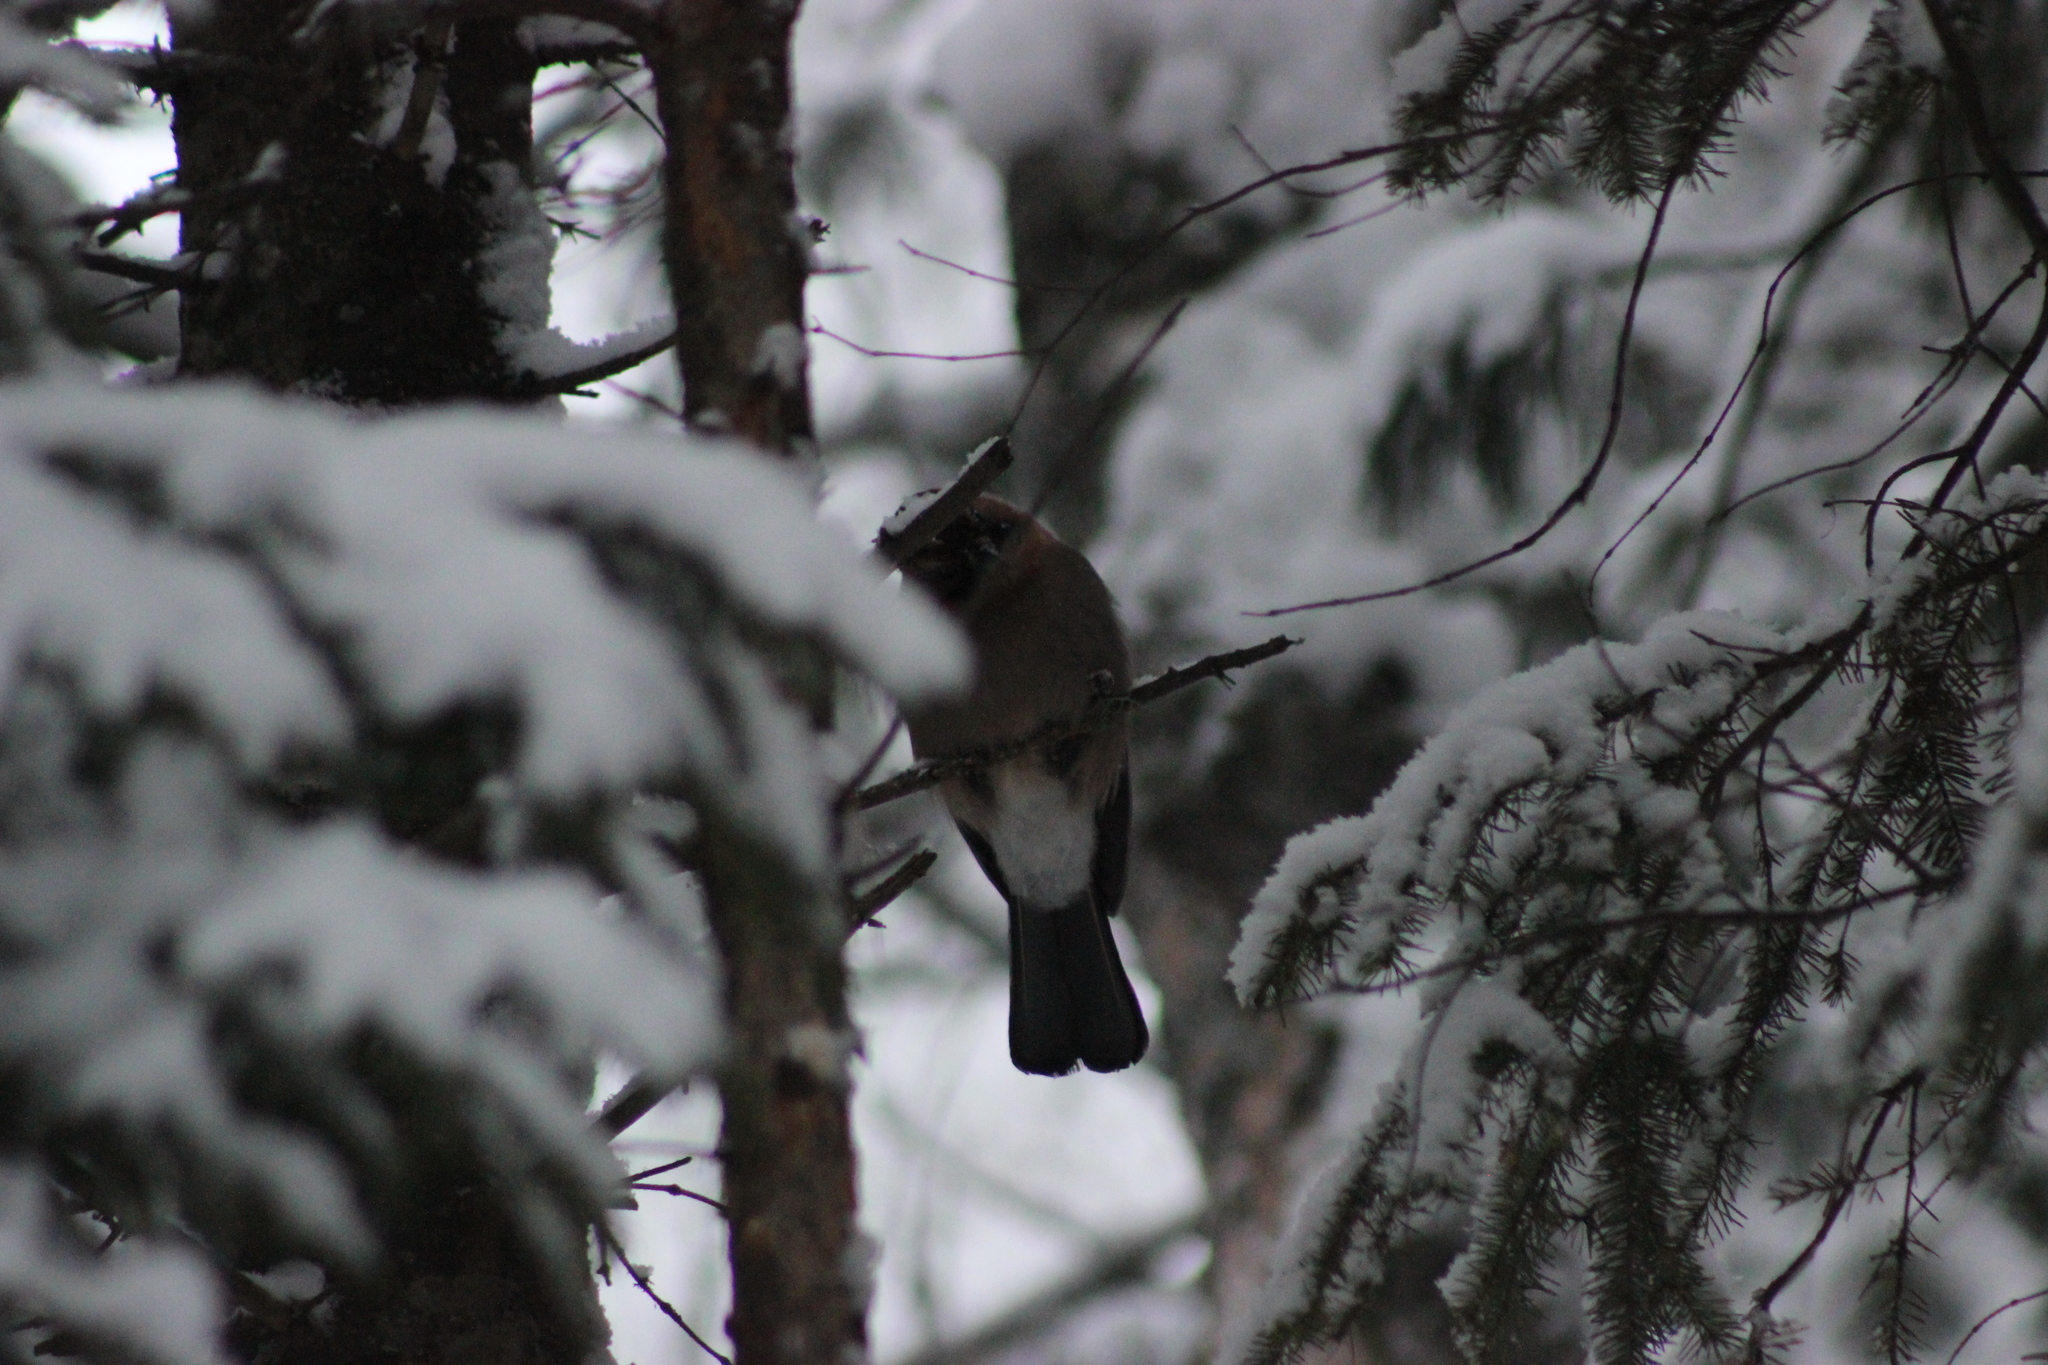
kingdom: Animalia
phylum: Chordata
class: Aves
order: Passeriformes
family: Corvidae
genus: Garrulus
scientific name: Garrulus glandarius
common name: Eurasian jay
